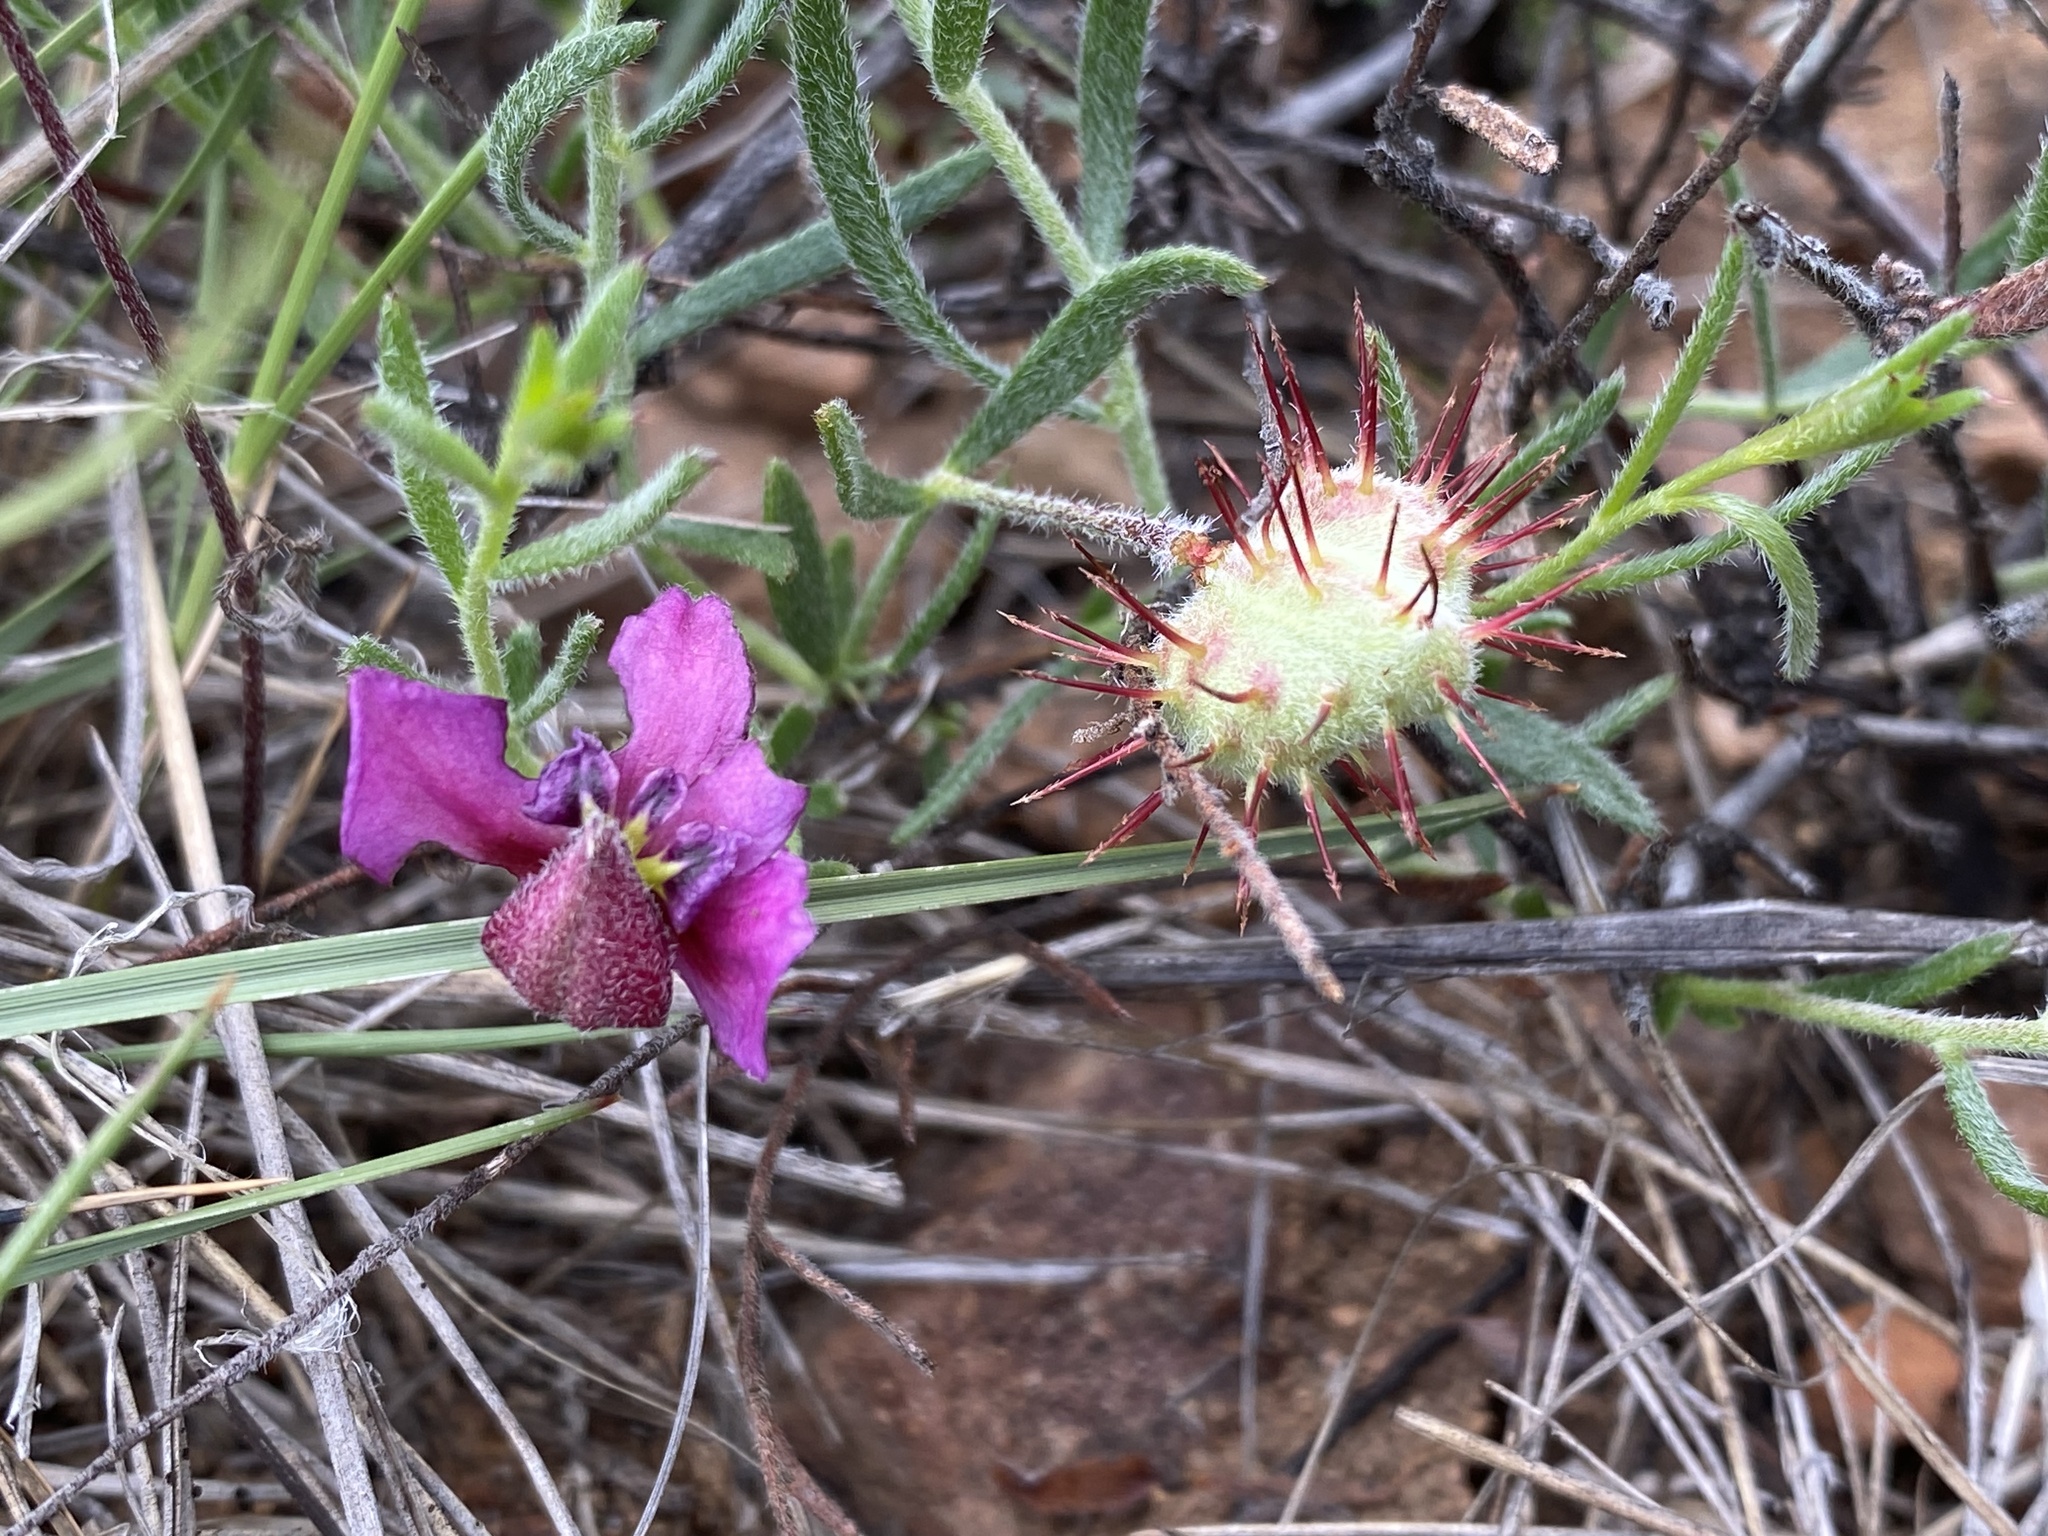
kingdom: Plantae
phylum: Tracheophyta
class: Magnoliopsida
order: Zygophyllales
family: Krameriaceae
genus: Krameria
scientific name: Krameria erecta
